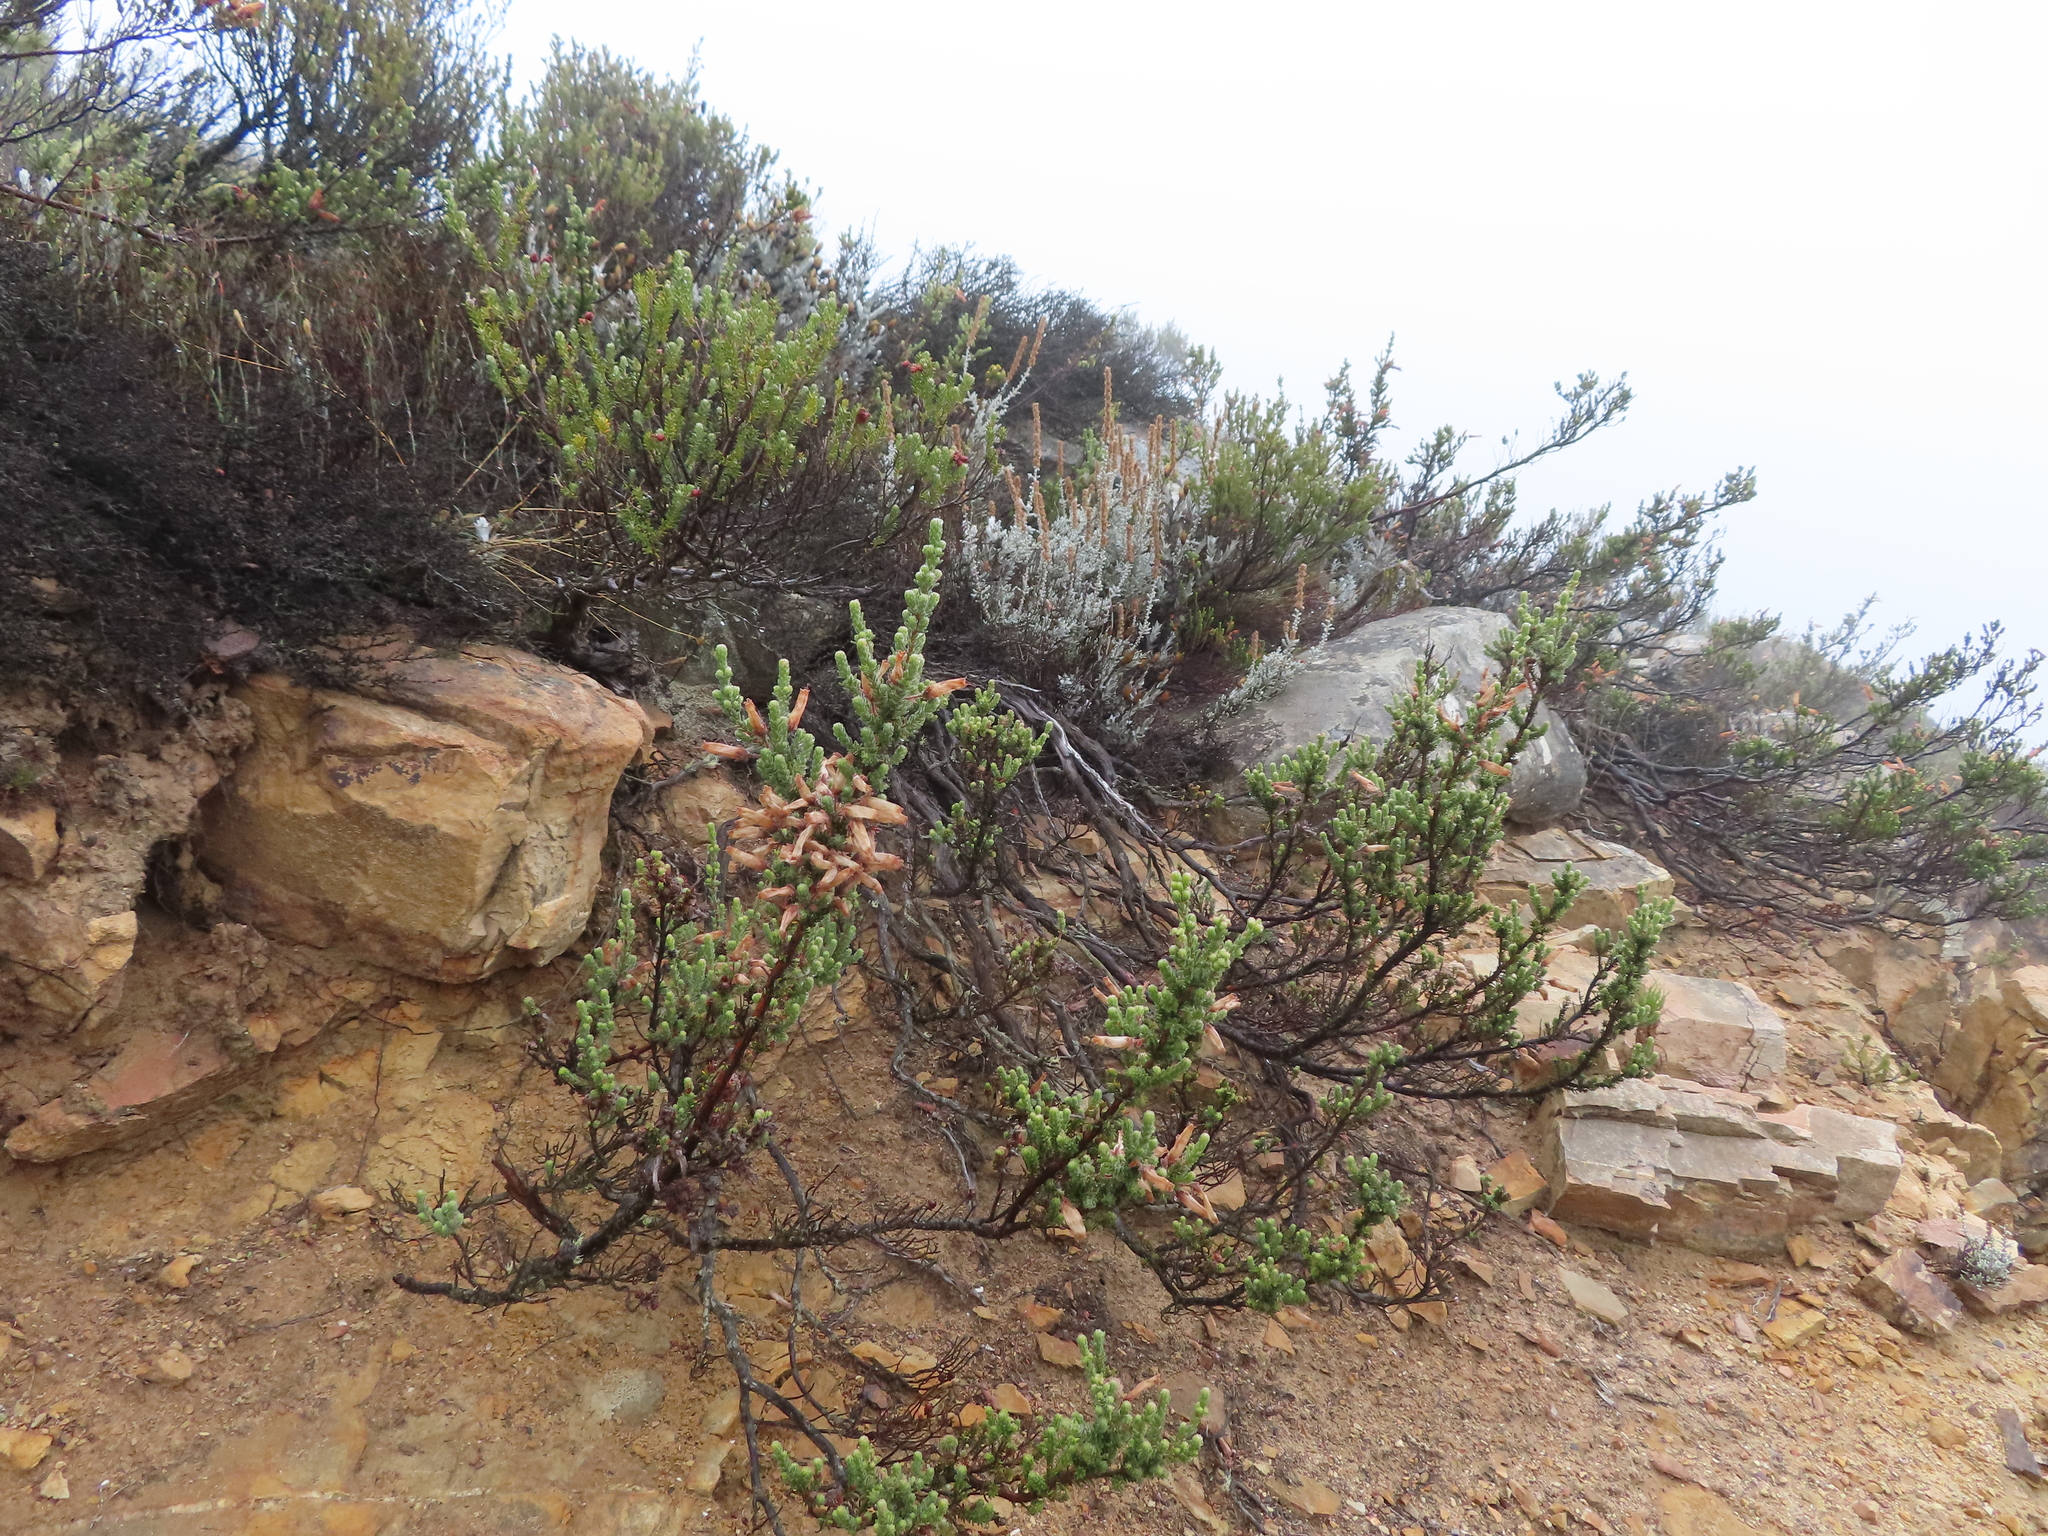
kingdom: Plantae
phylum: Tracheophyta
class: Magnoliopsida
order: Ericales
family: Ericaceae
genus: Erica
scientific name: Erica tumida
